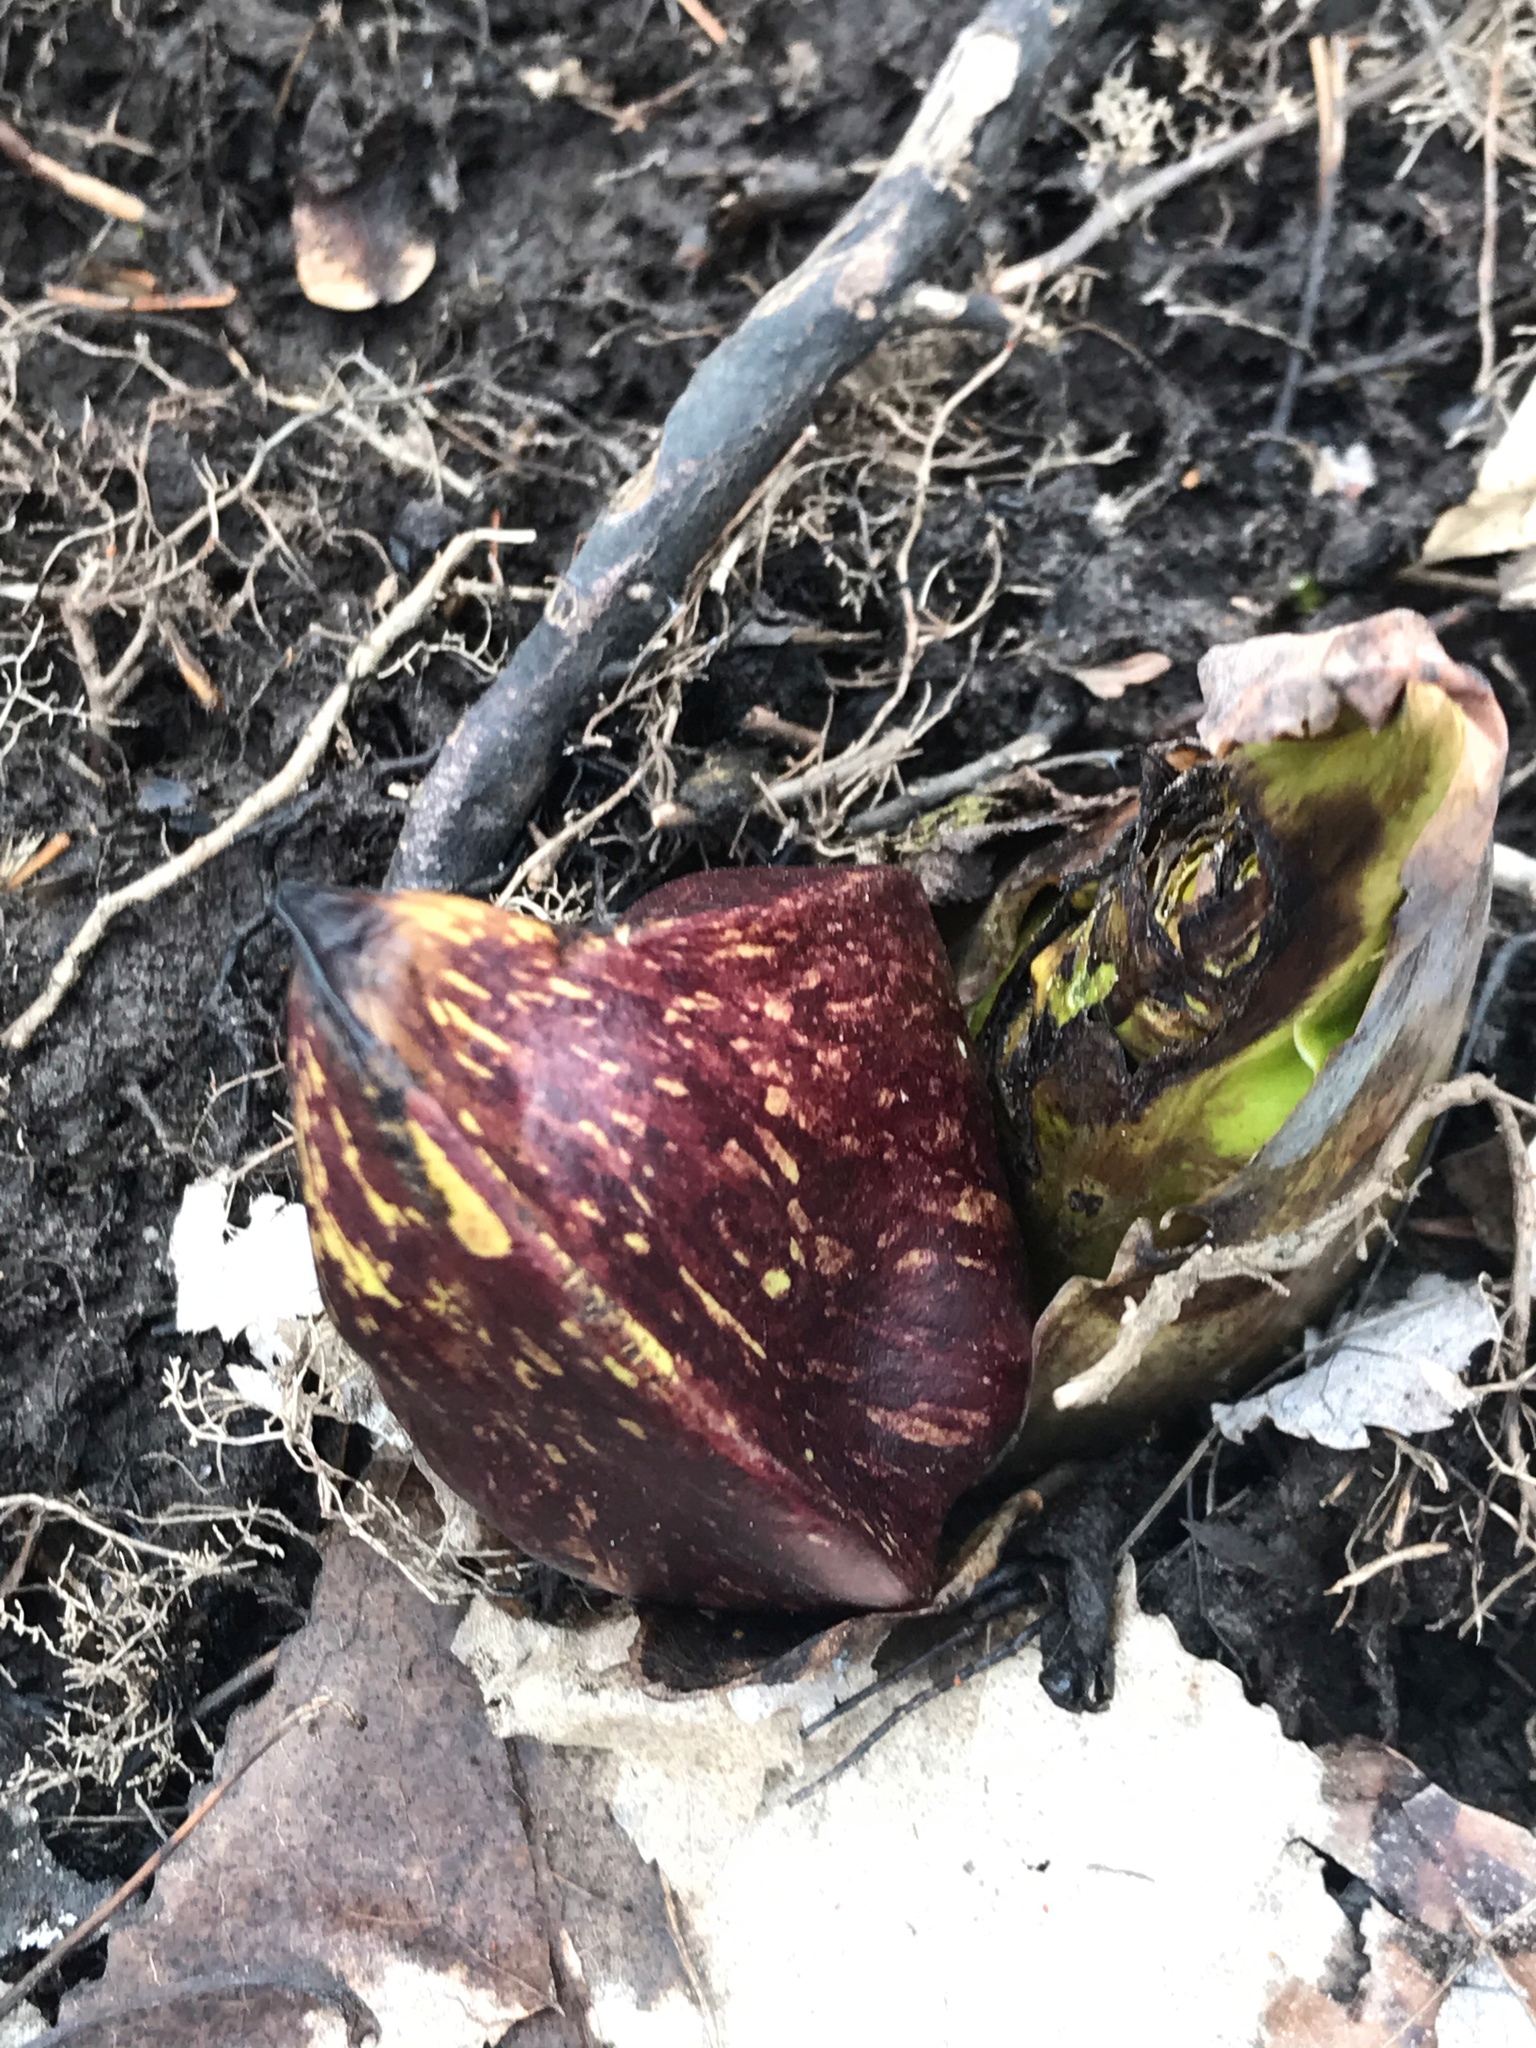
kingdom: Plantae
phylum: Tracheophyta
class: Liliopsida
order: Alismatales
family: Araceae
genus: Symplocarpus
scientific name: Symplocarpus foetidus
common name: Eastern skunk cabbage
